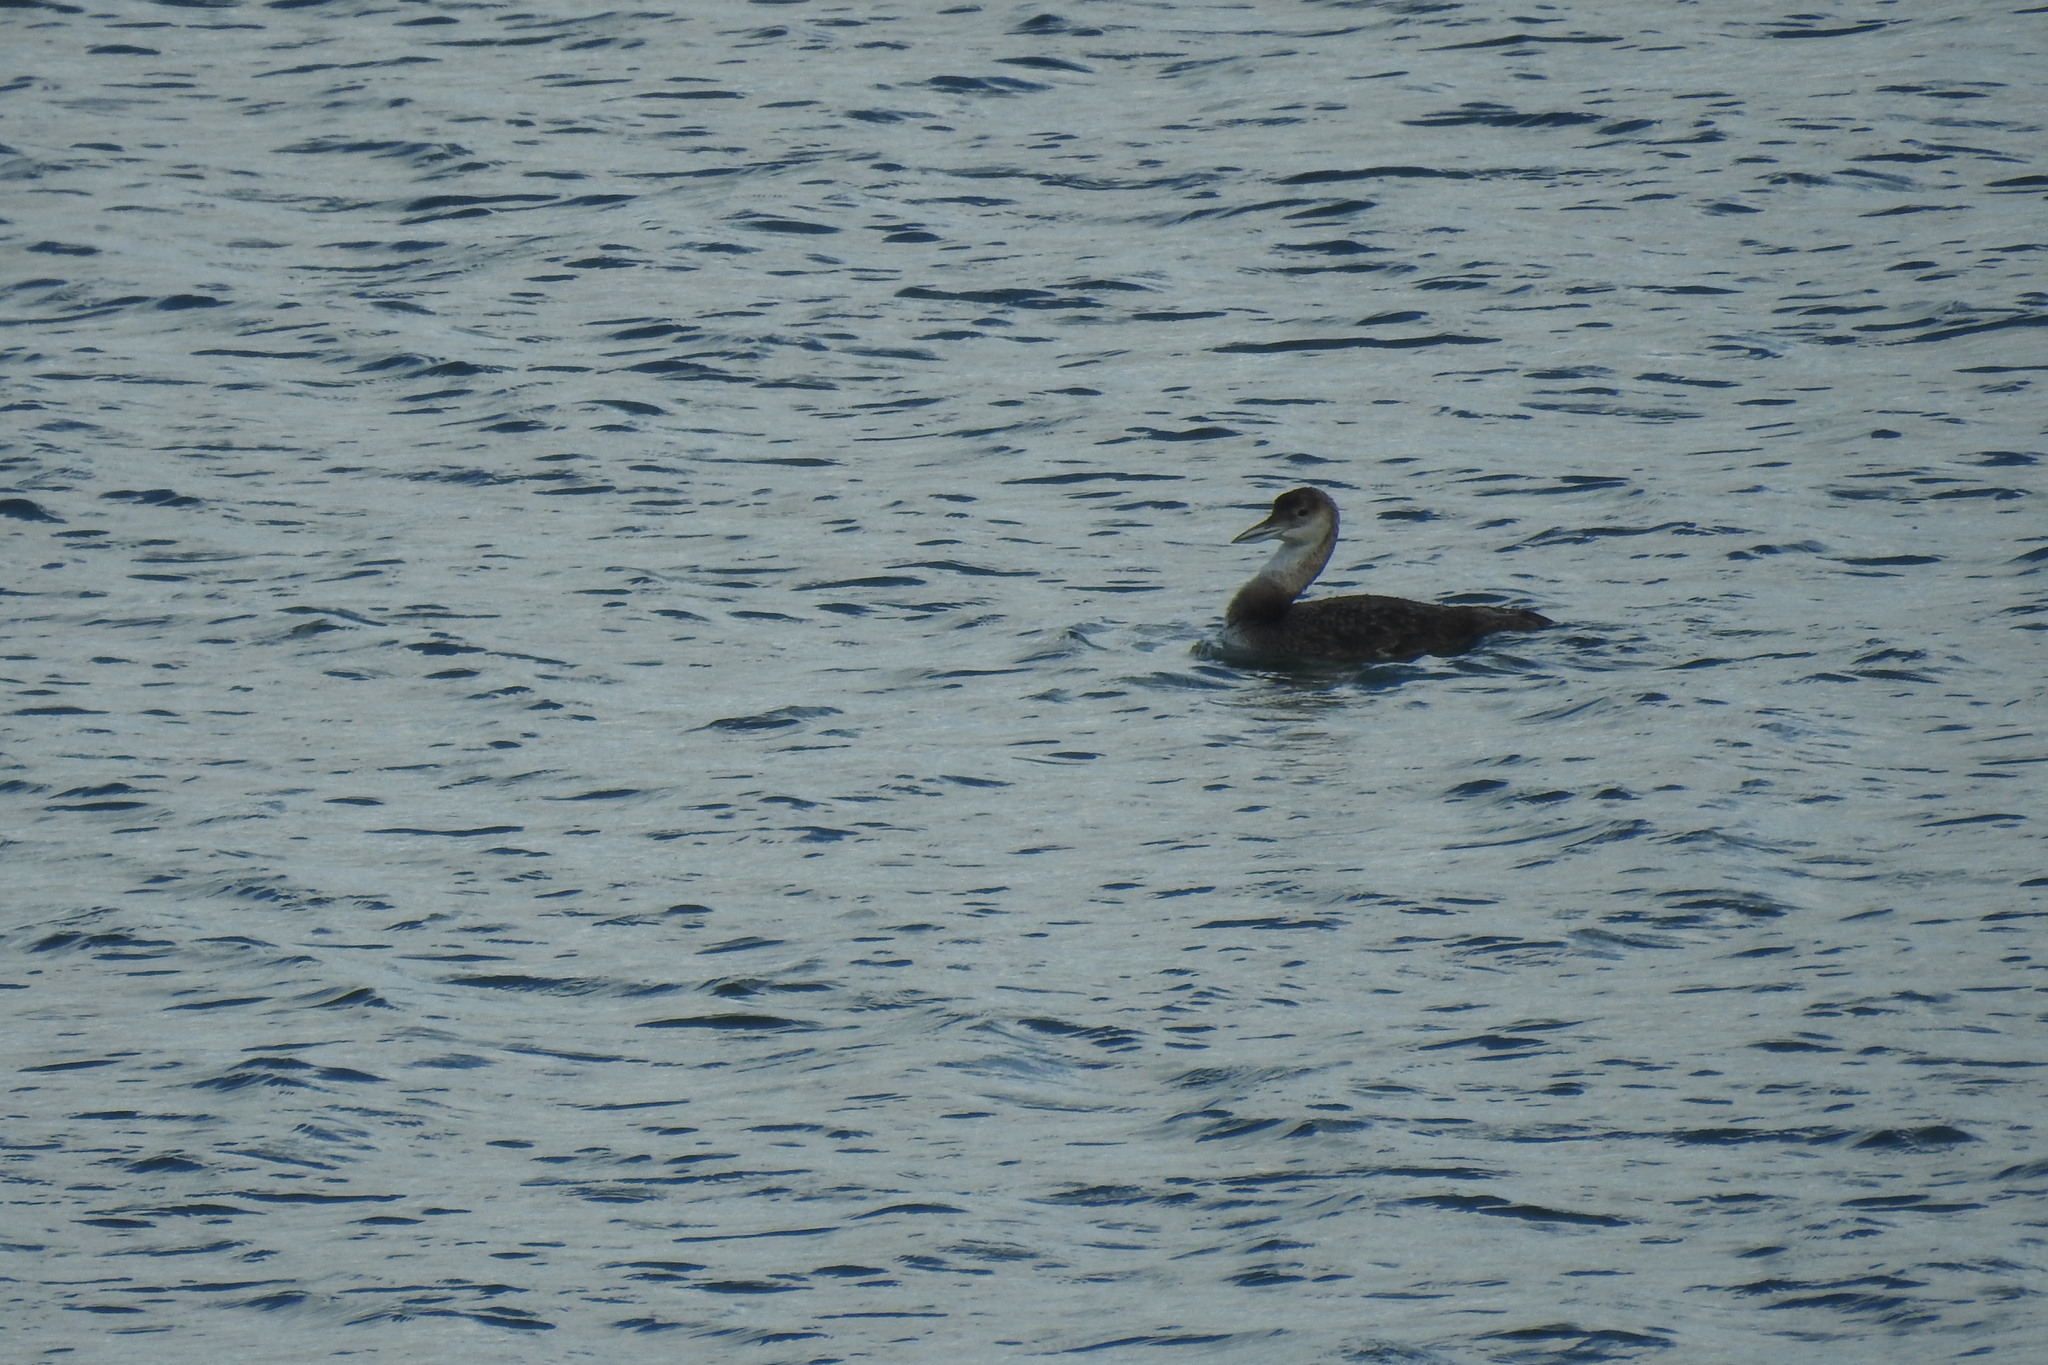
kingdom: Animalia
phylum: Chordata
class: Aves
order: Gaviiformes
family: Gaviidae
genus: Gavia
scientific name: Gavia immer
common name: Common loon
